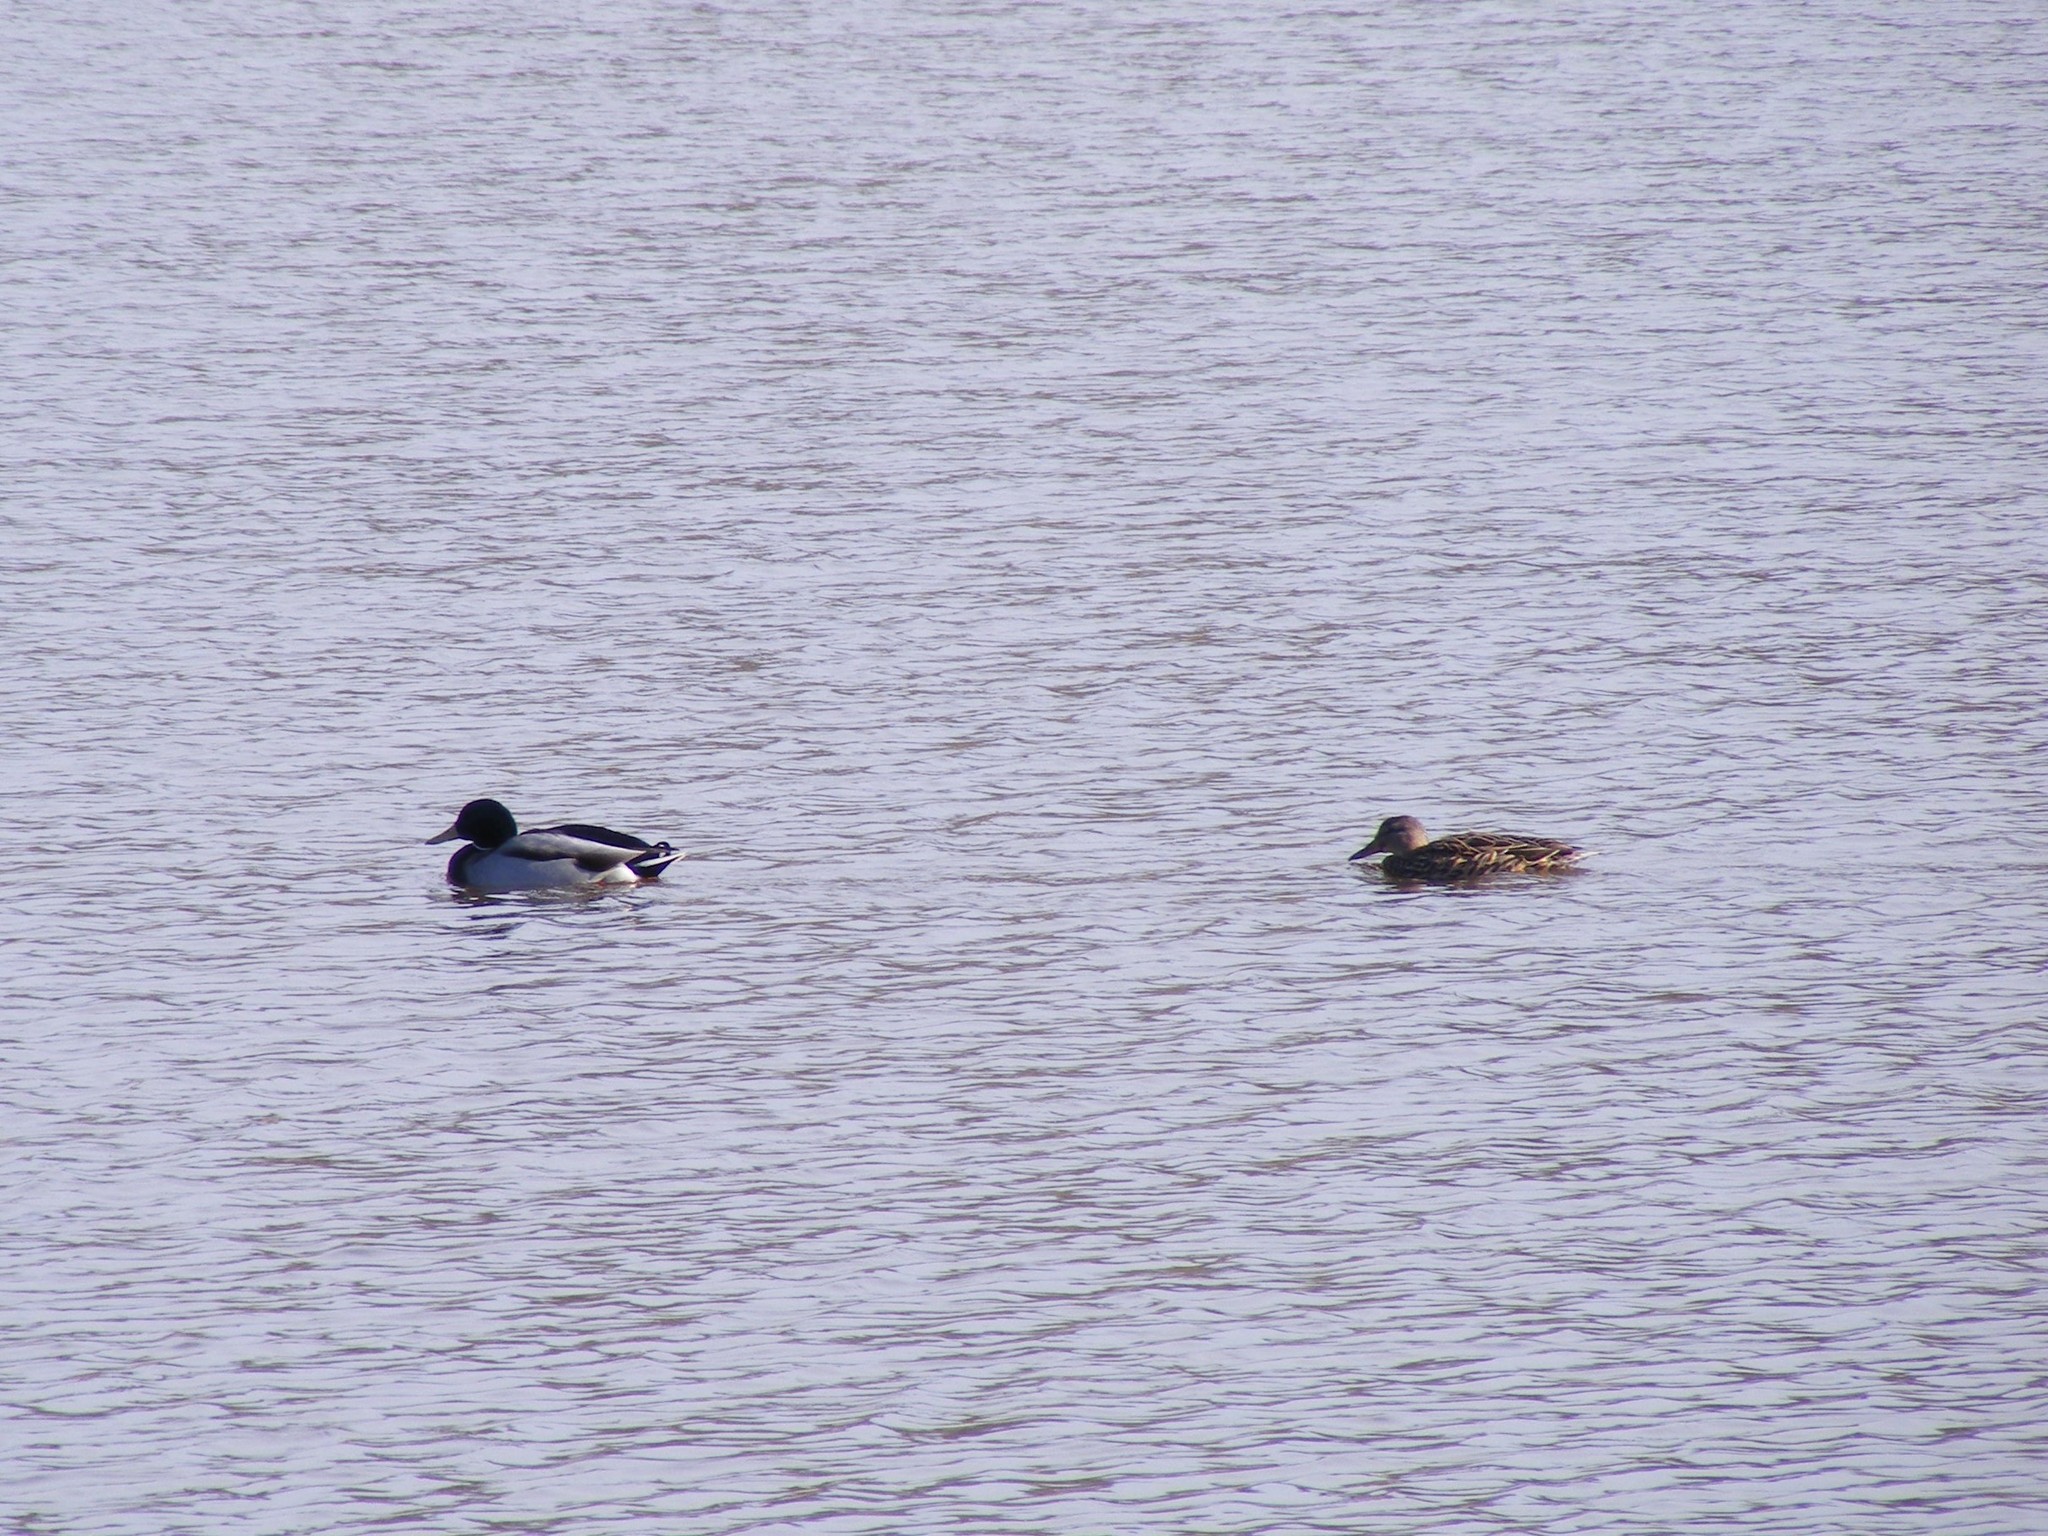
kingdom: Animalia
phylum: Chordata
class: Aves
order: Anseriformes
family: Anatidae
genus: Anas
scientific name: Anas platyrhynchos
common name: Mallard
